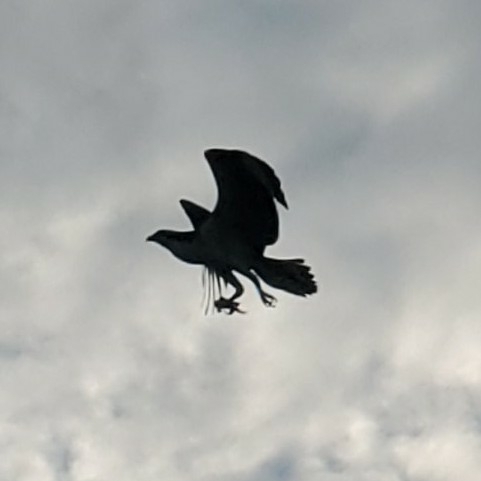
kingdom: Animalia
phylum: Chordata
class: Aves
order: Accipitriformes
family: Pandionidae
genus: Pandion
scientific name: Pandion haliaetus
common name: Osprey
